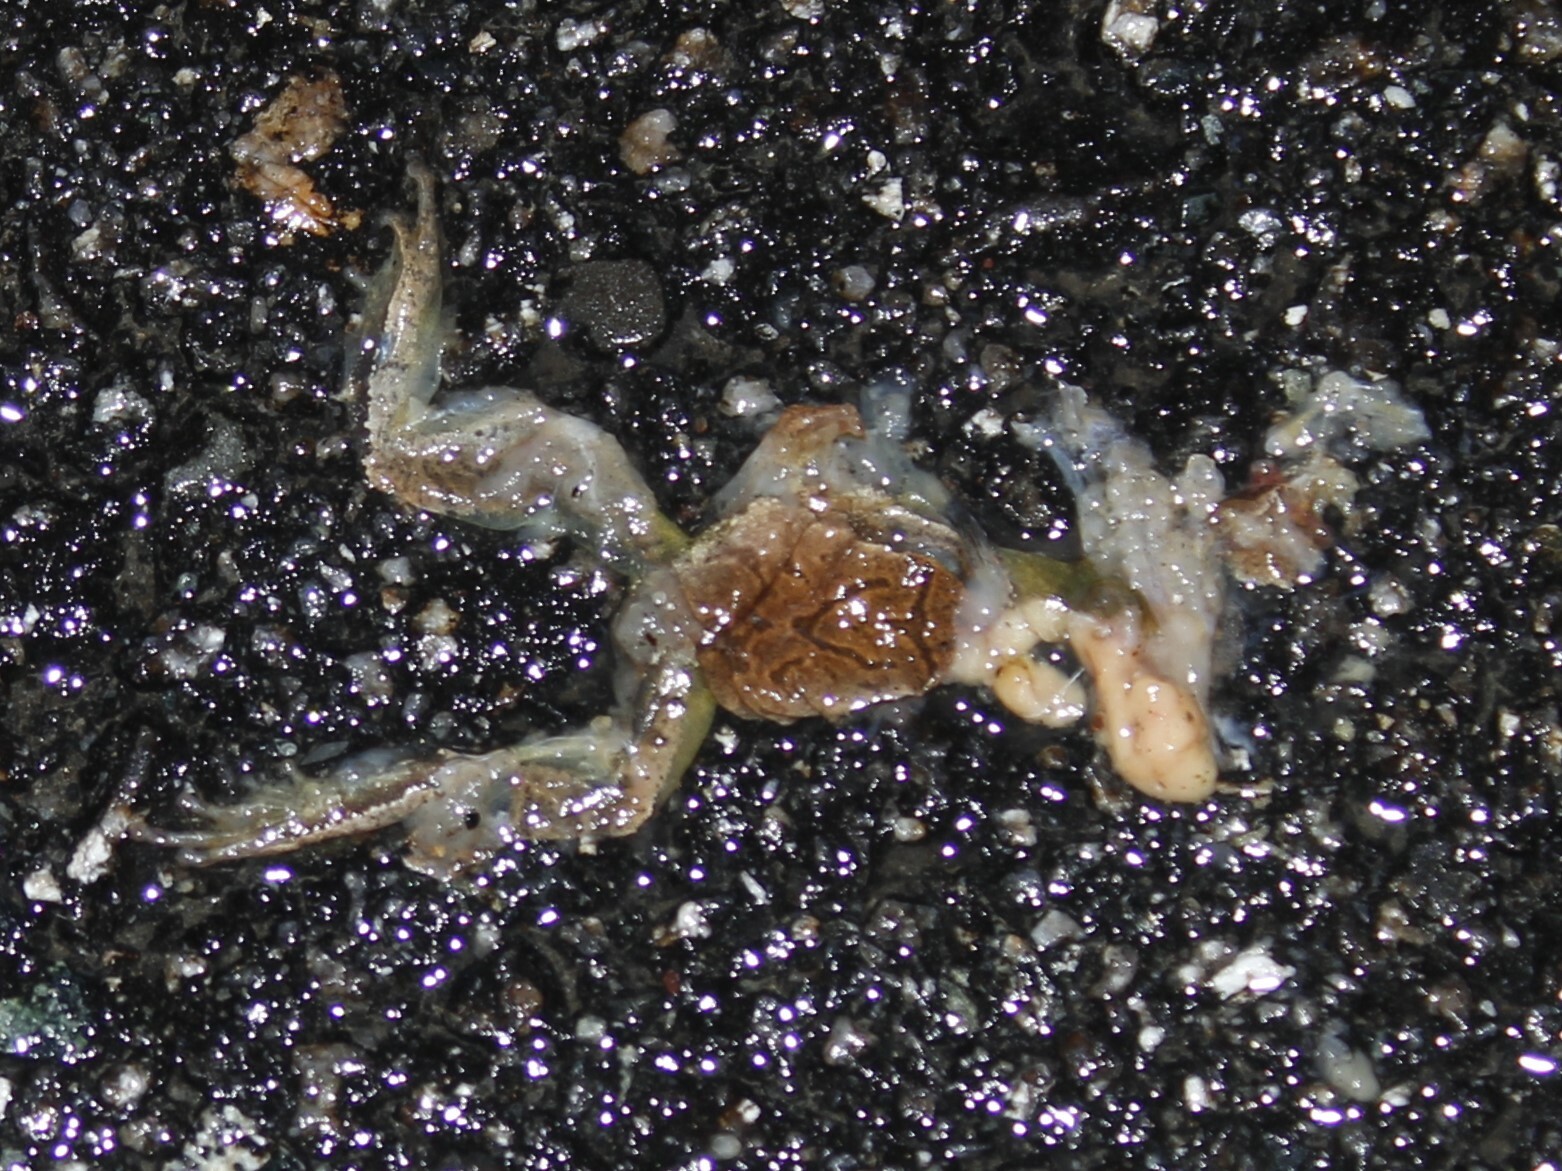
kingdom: Animalia
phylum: Chordata
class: Amphibia
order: Anura
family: Hylidae
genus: Pseudacris
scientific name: Pseudacris crucifer
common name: Spring peeper
